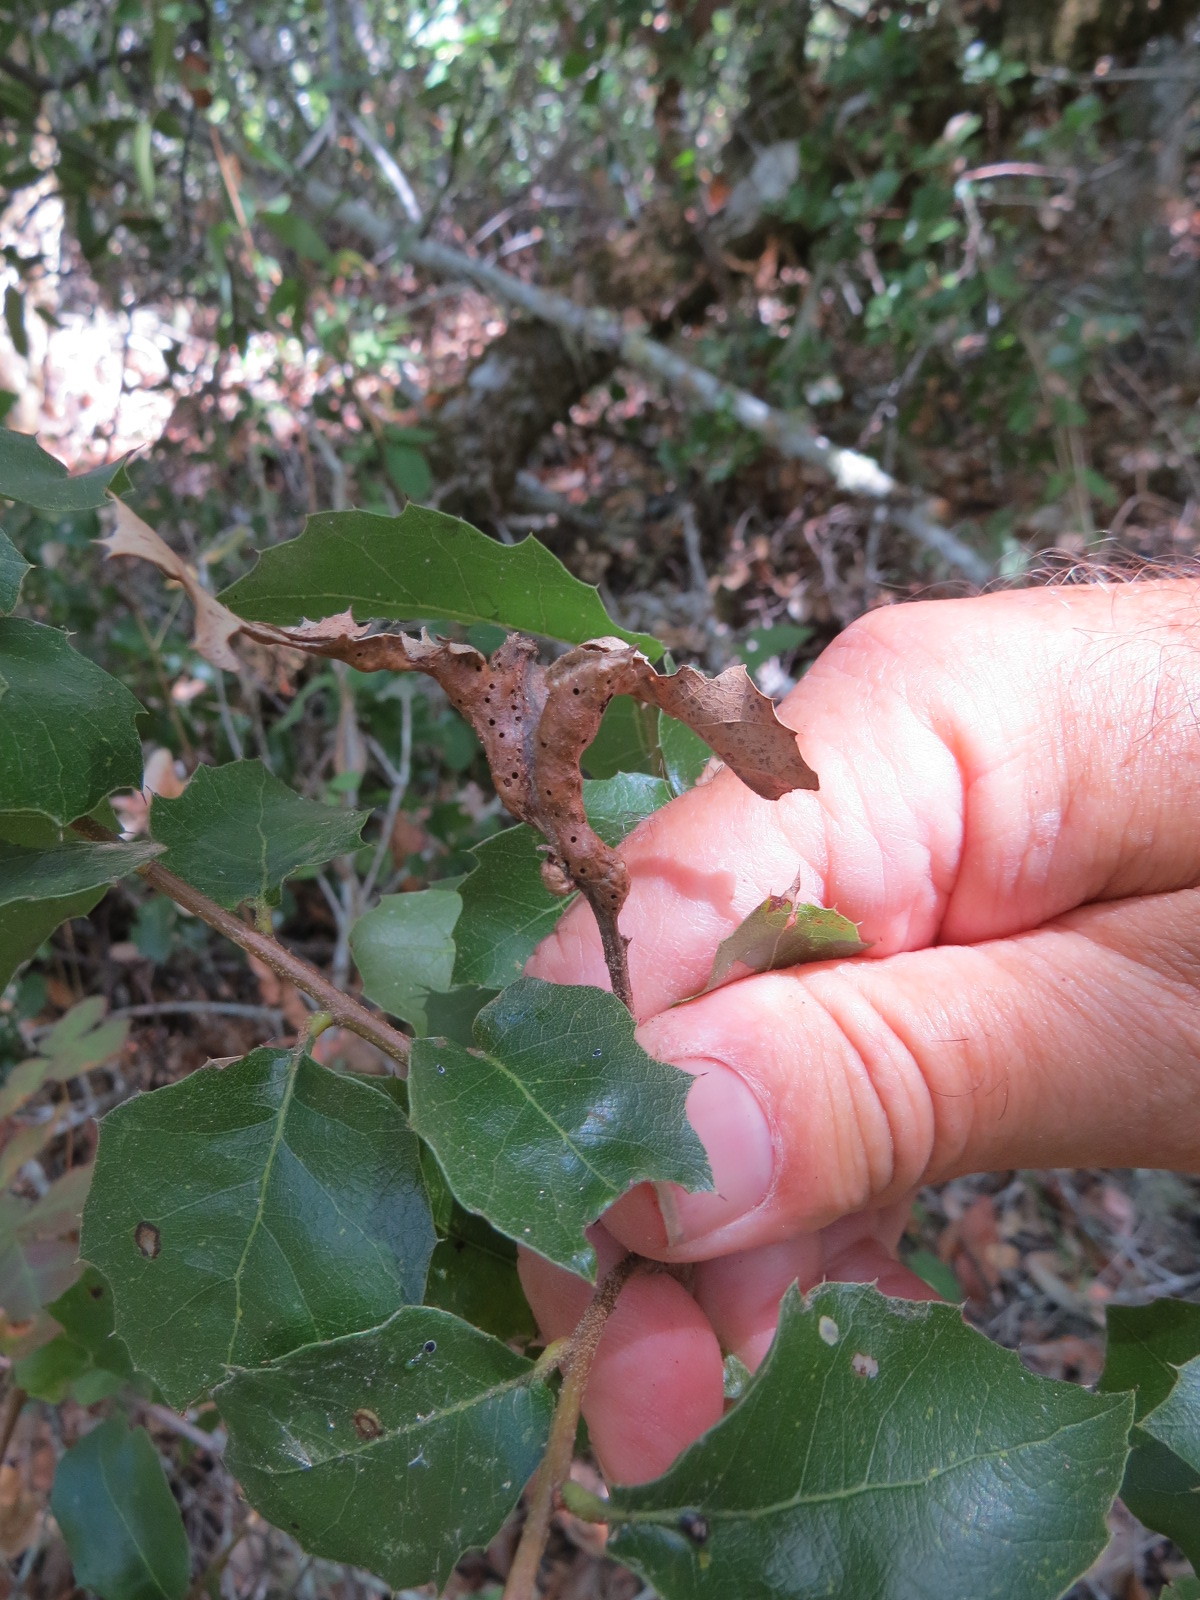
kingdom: Animalia
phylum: Arthropoda
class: Insecta
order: Hymenoptera
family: Cynipidae
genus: Melikaiella
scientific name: Melikaiella
